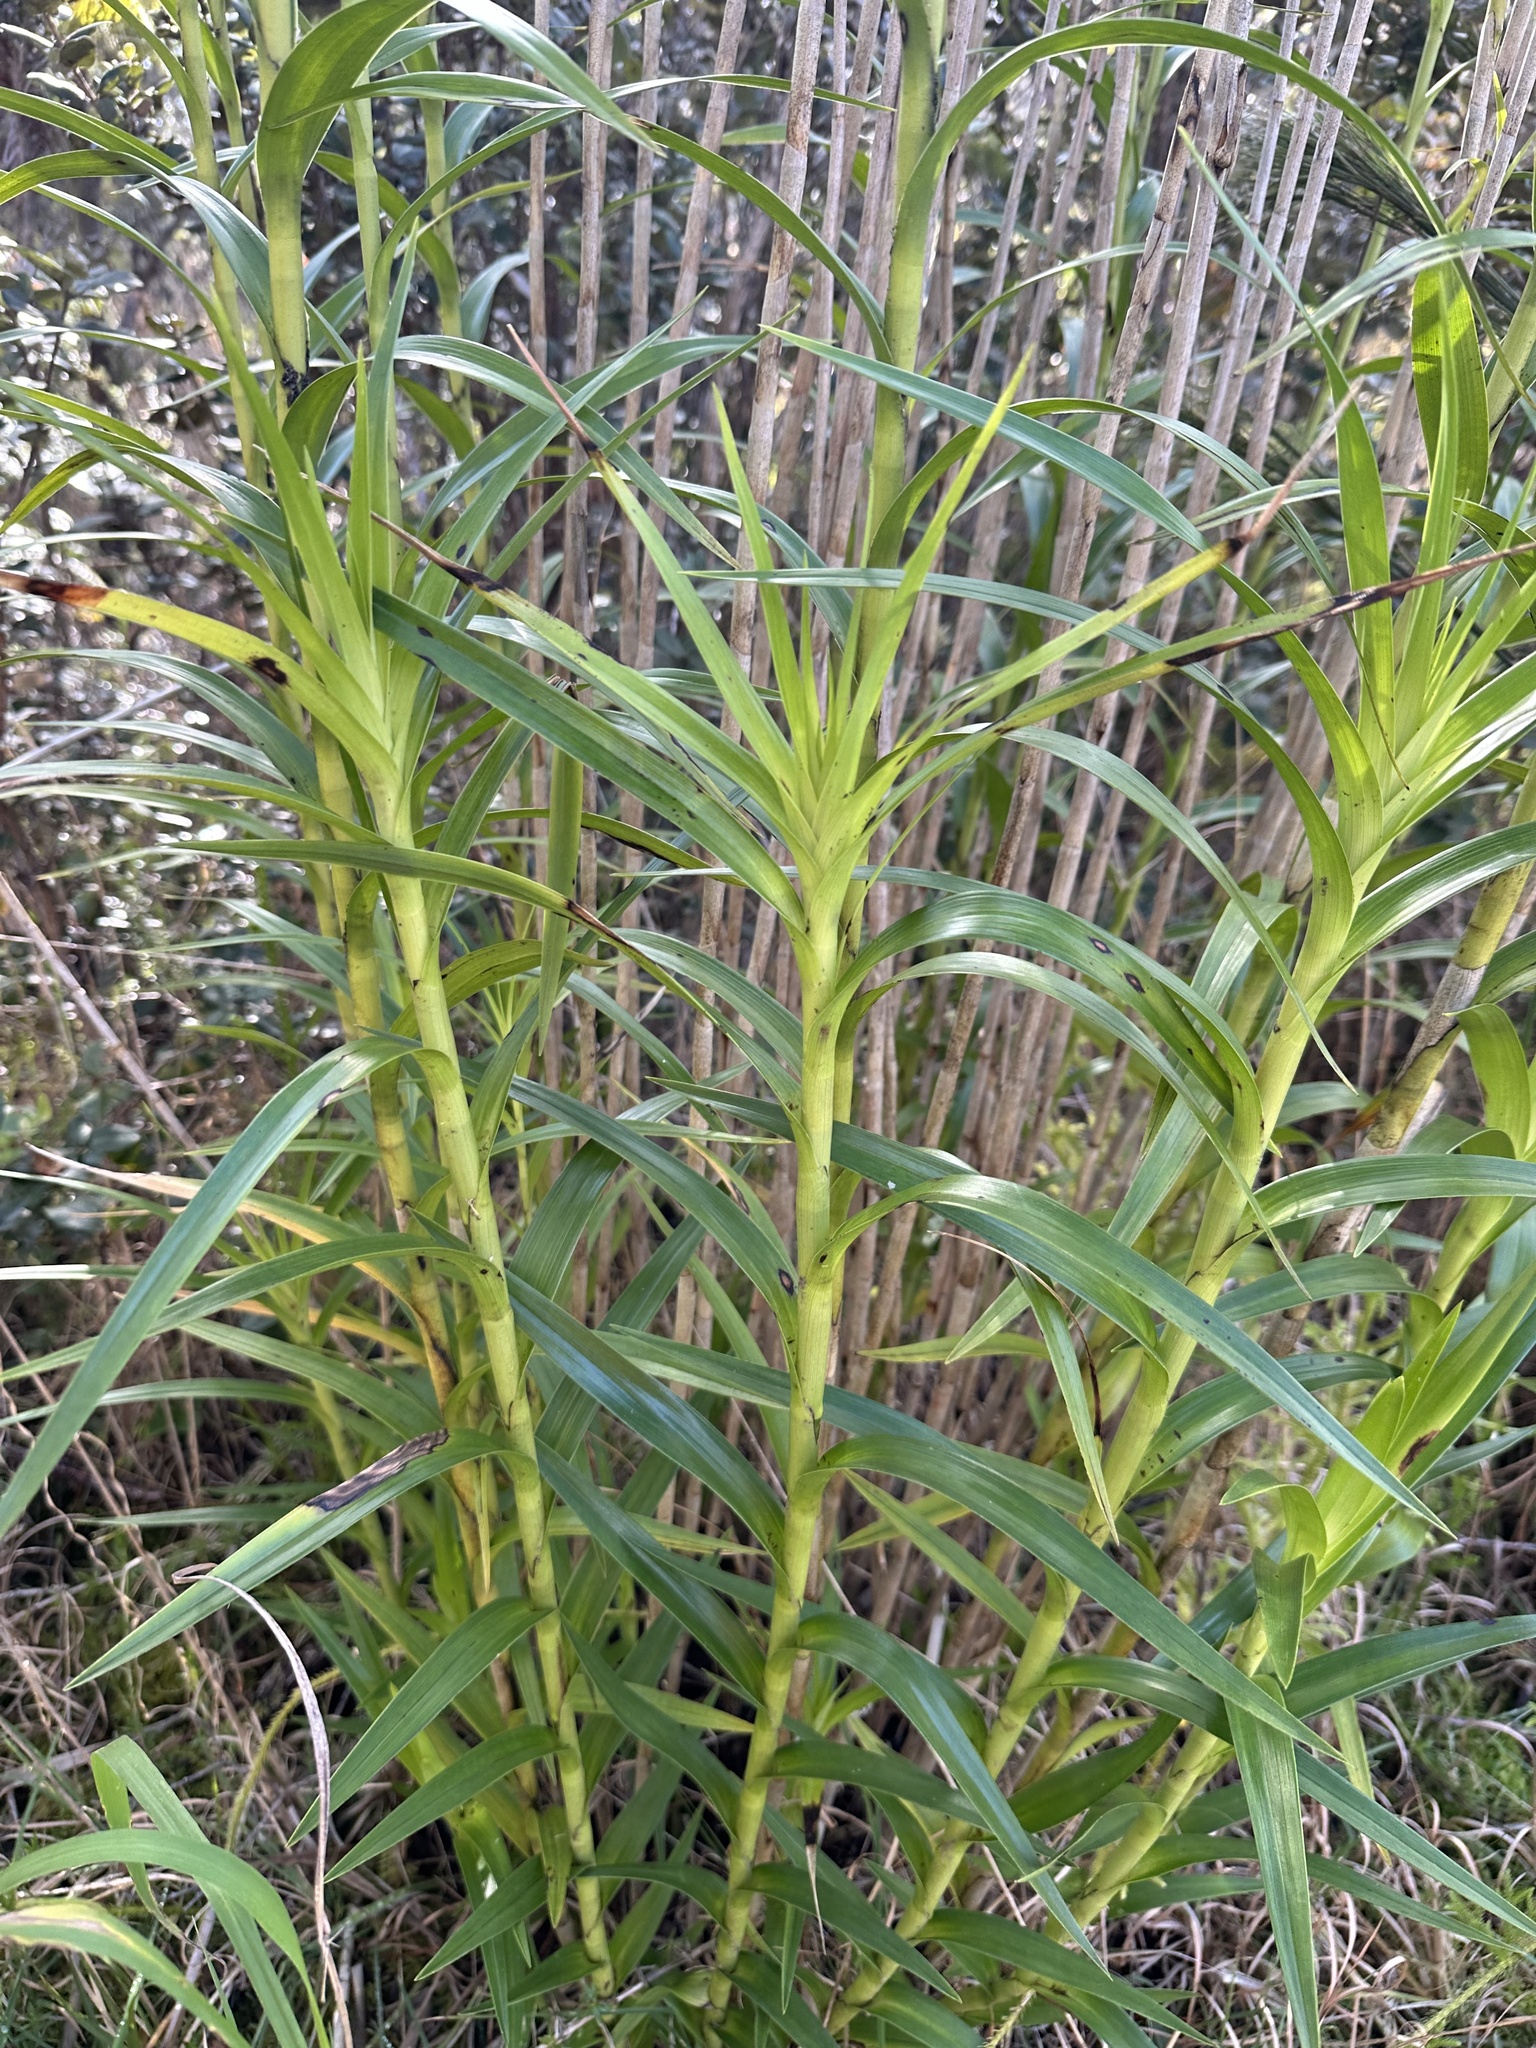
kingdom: Plantae
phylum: Tracheophyta
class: Liliopsida
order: Asparagales
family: Orchidaceae
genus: Arundina
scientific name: Arundina graminifolia
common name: Bamboo orchid
